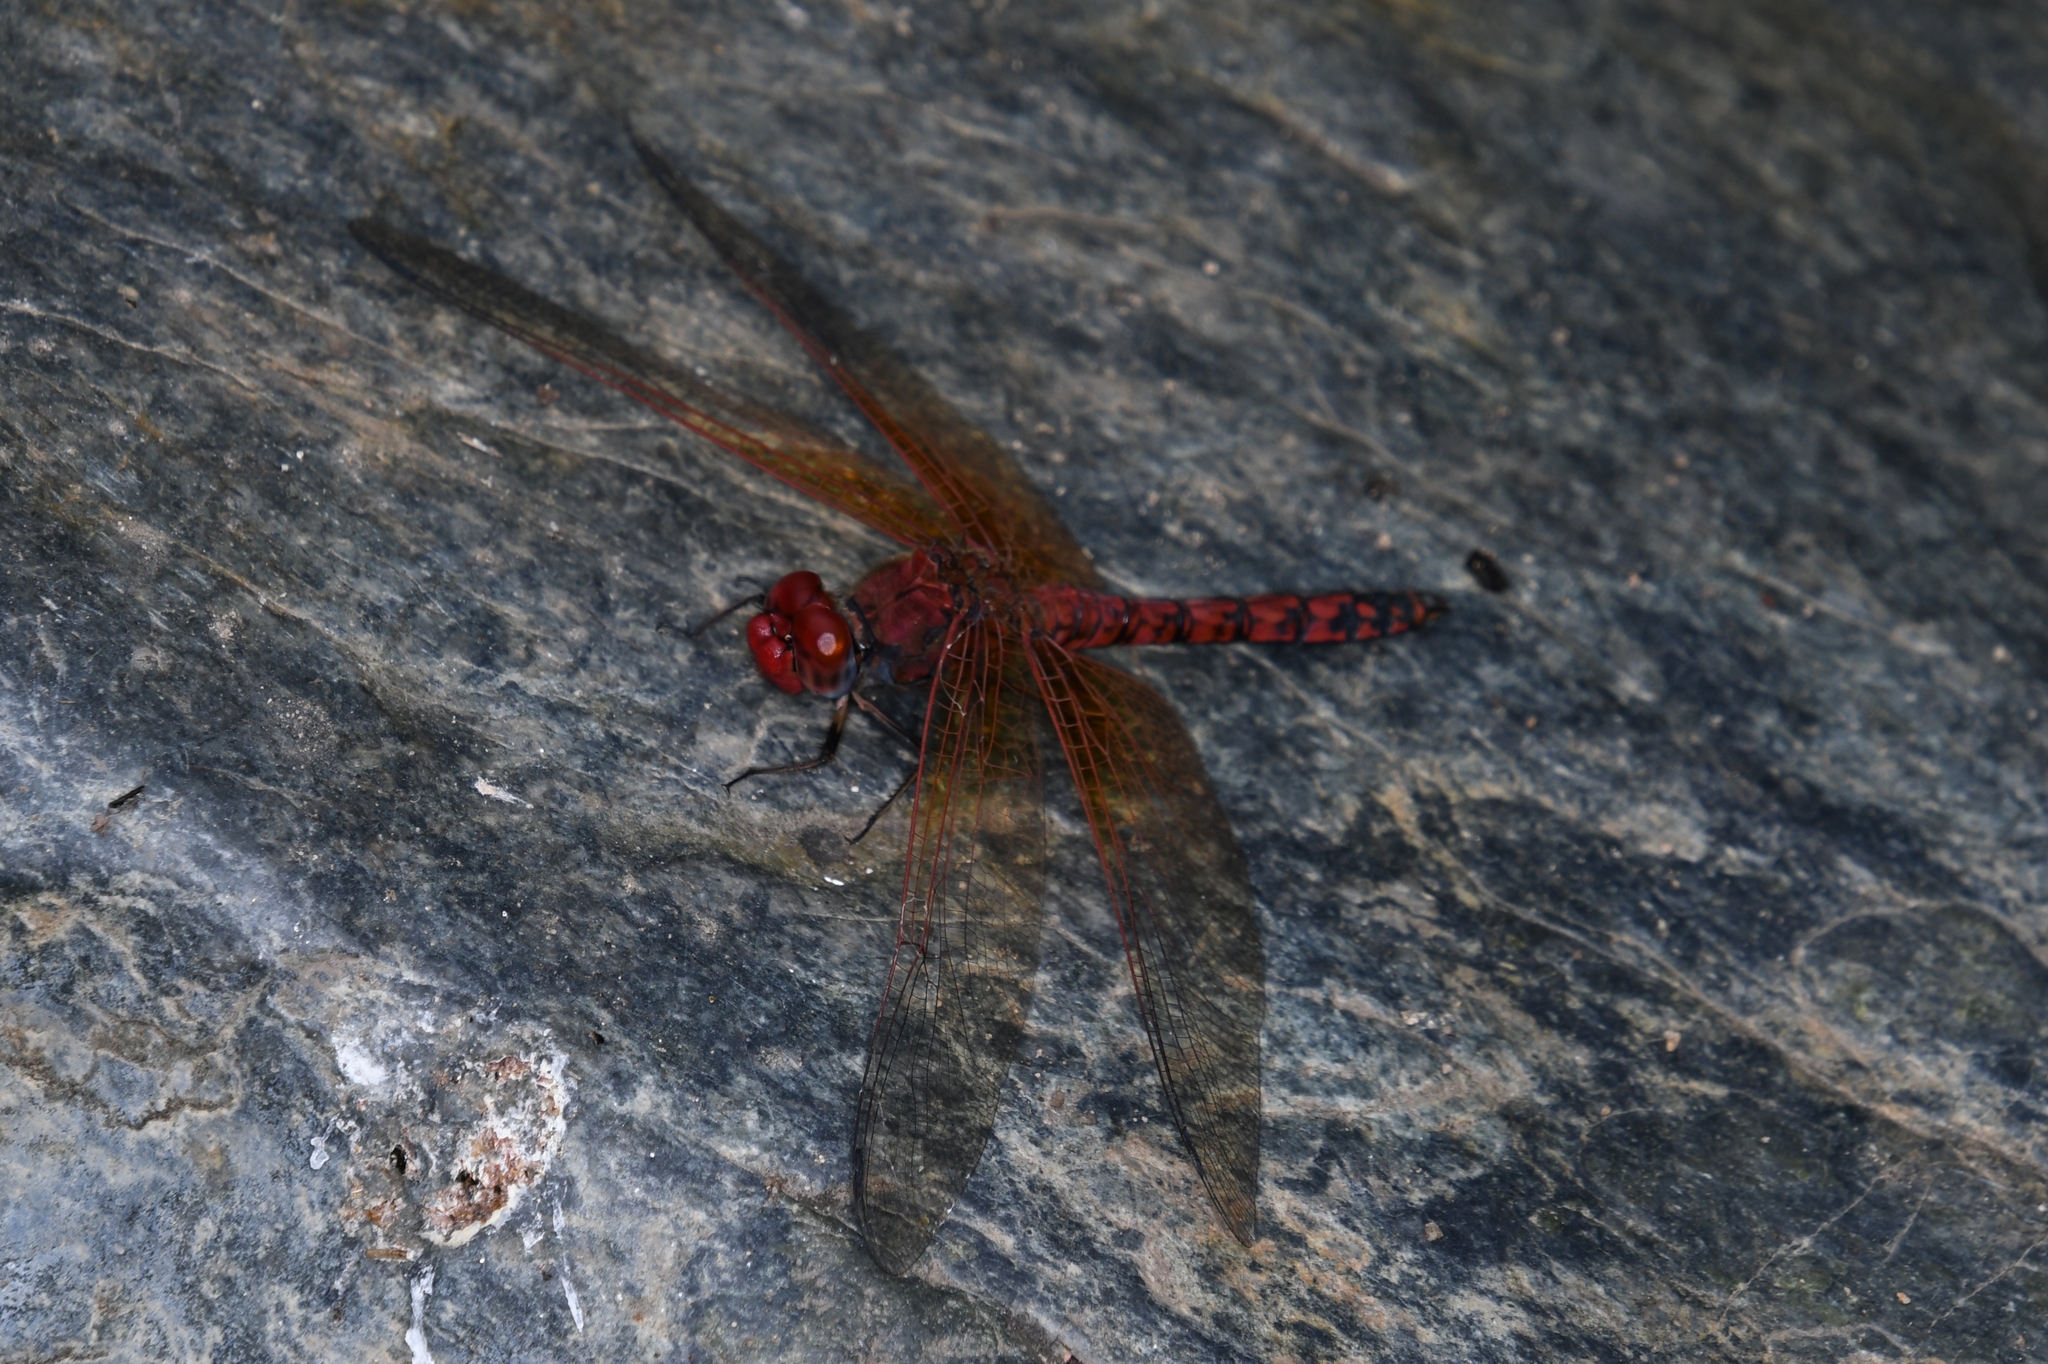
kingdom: Animalia
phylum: Arthropoda
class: Insecta
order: Odonata
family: Libellulidae
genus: Paltothemis
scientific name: Paltothemis lineatipes
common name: Red rock skimmer
